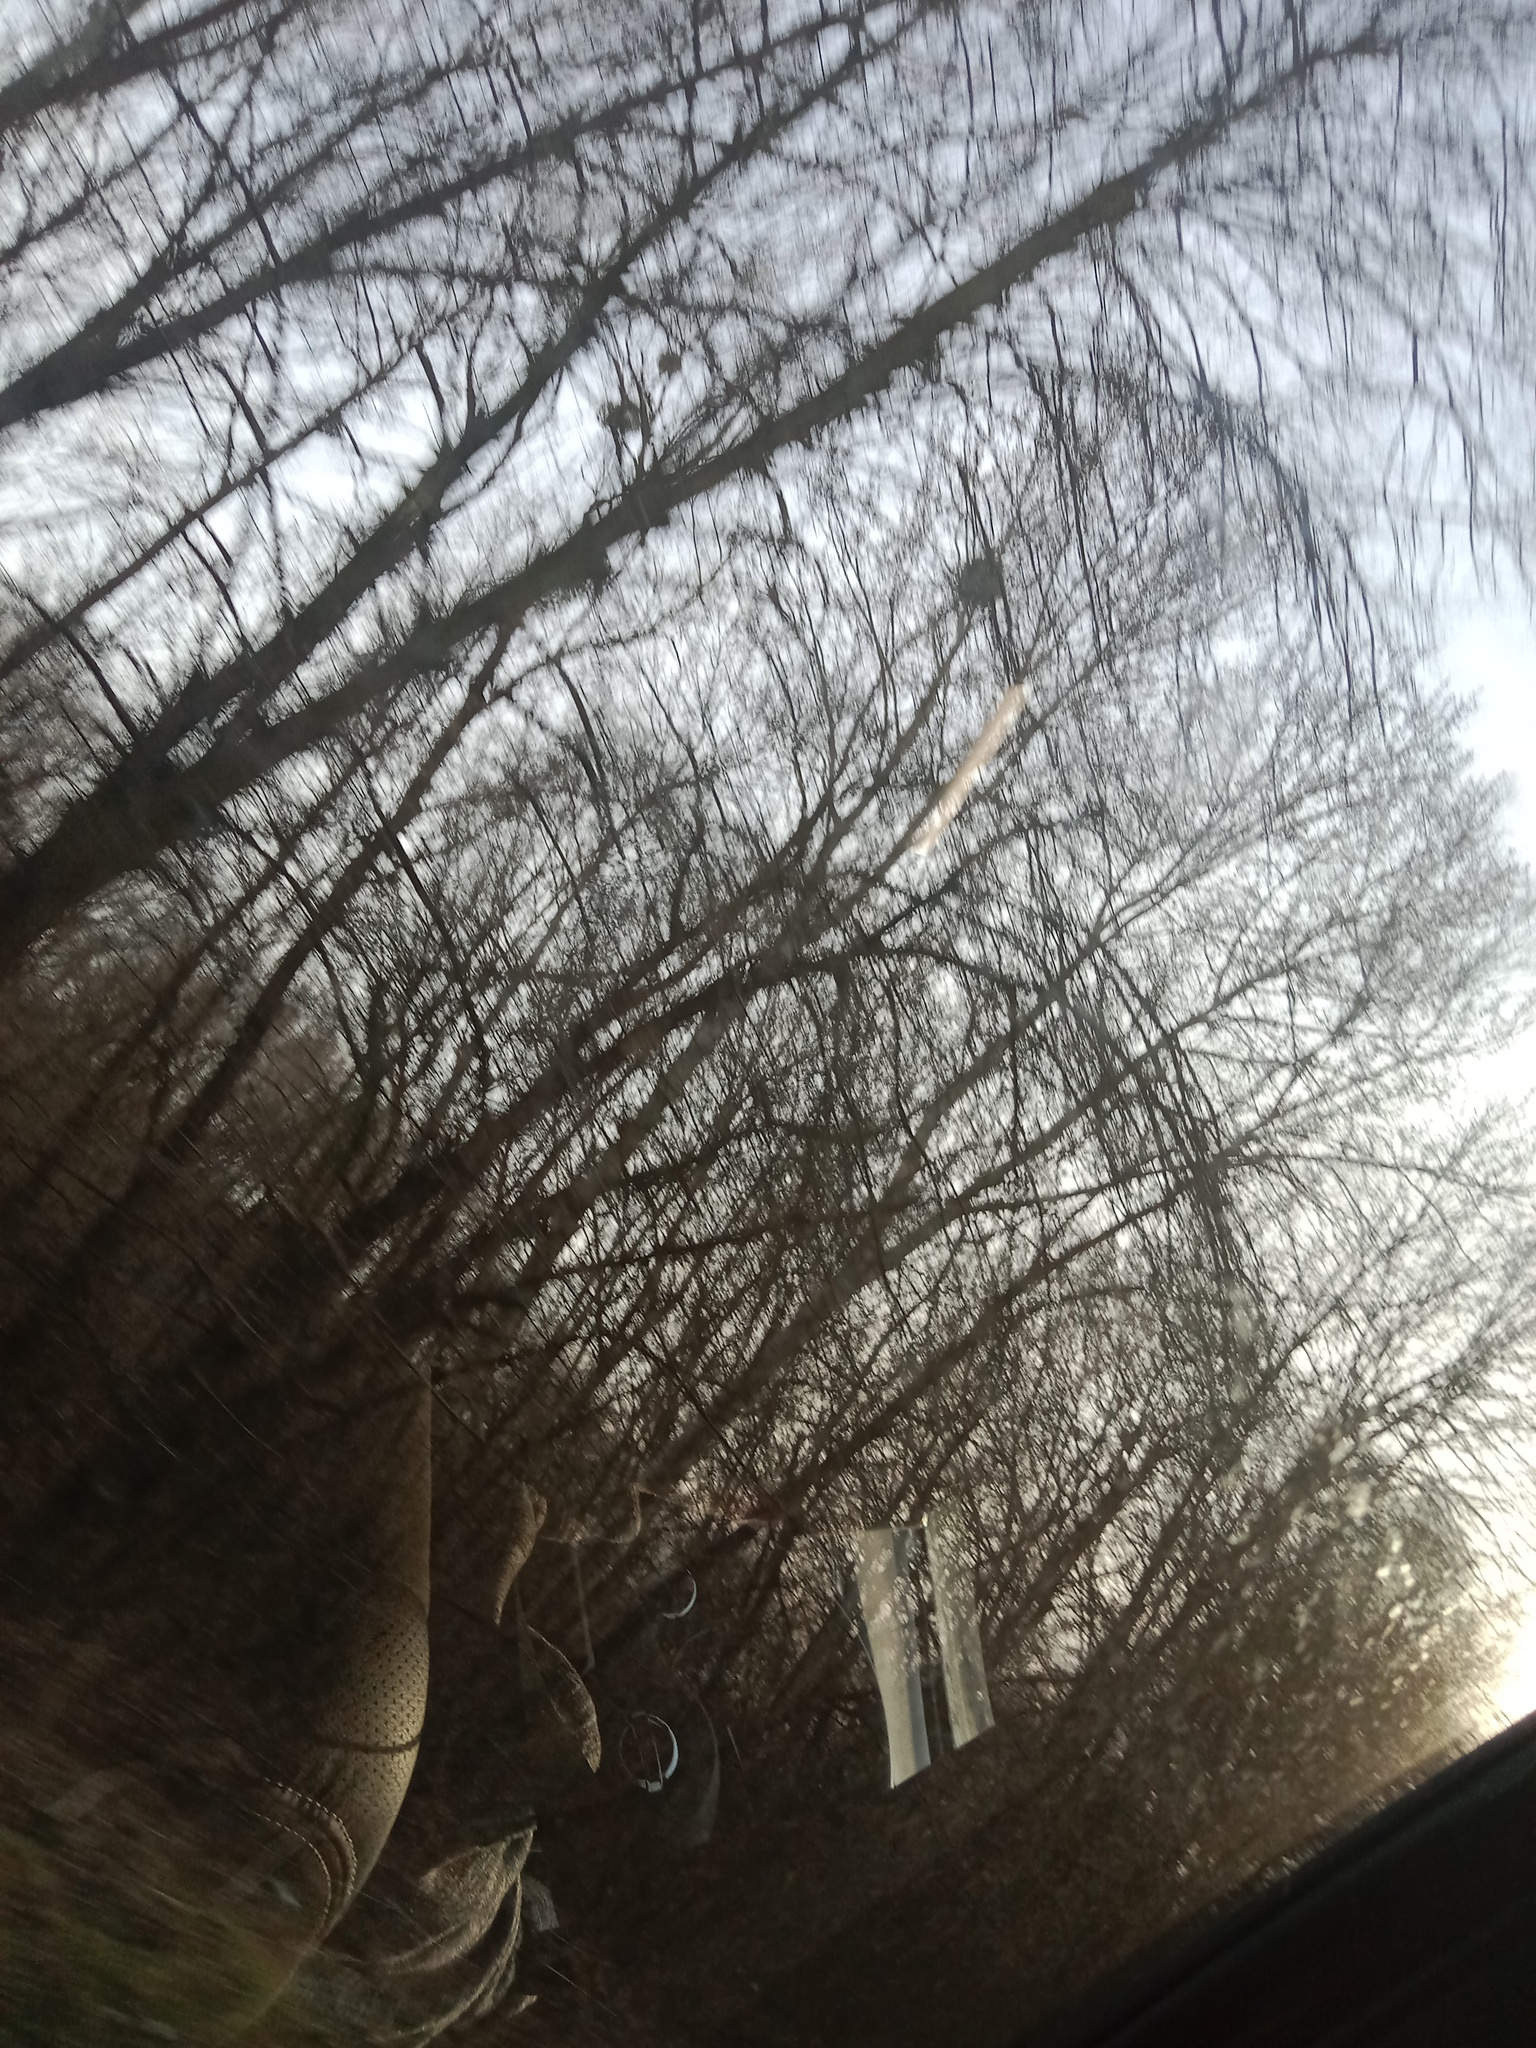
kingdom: Plantae
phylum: Tracheophyta
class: Magnoliopsida
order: Santalales
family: Viscaceae
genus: Viscum
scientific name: Viscum album
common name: Mistletoe
